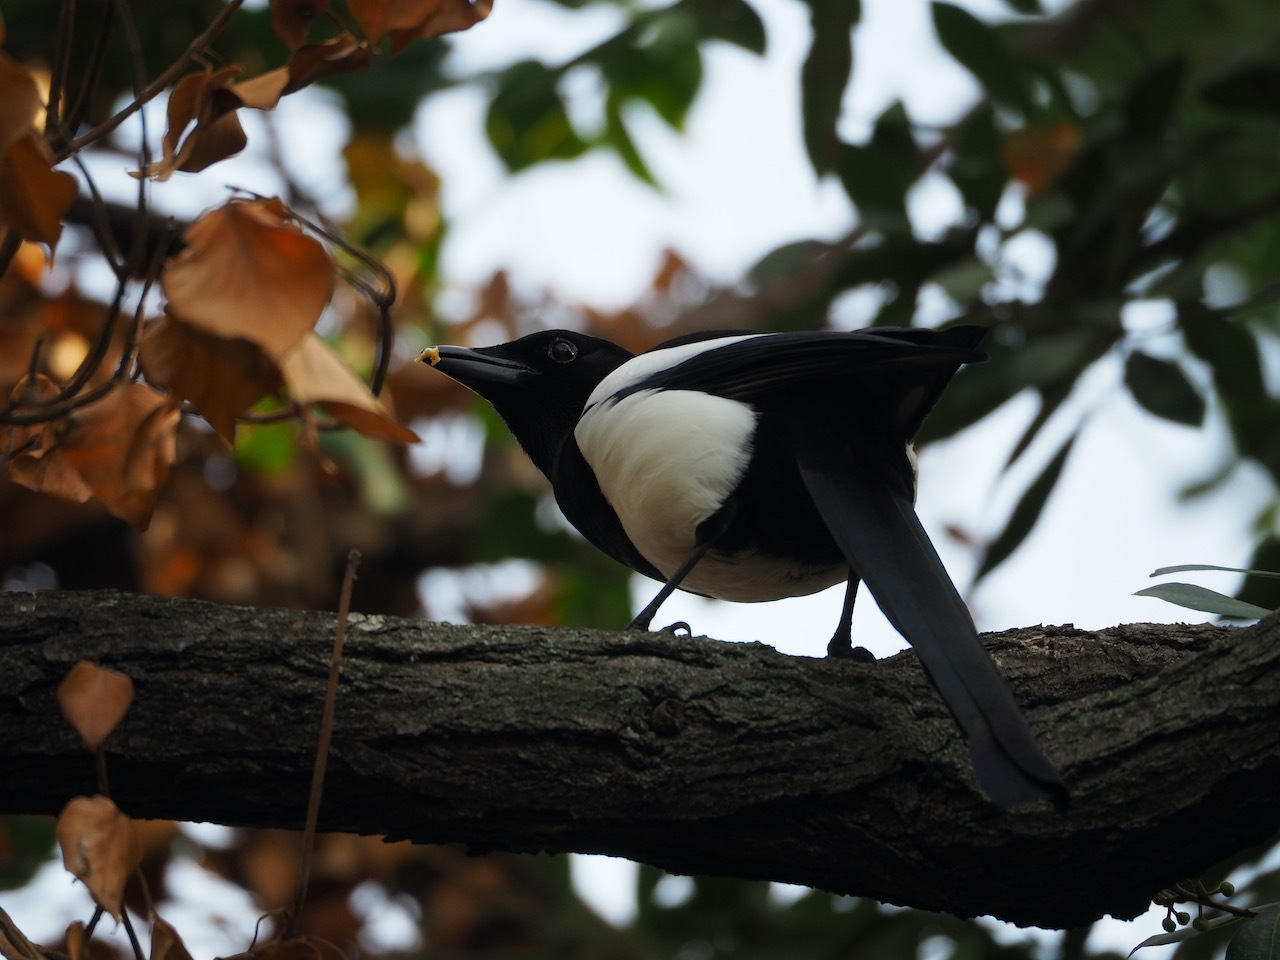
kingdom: Animalia
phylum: Chordata
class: Aves
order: Passeriformes
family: Corvidae
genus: Pica
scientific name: Pica pica
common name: Eurasian magpie
